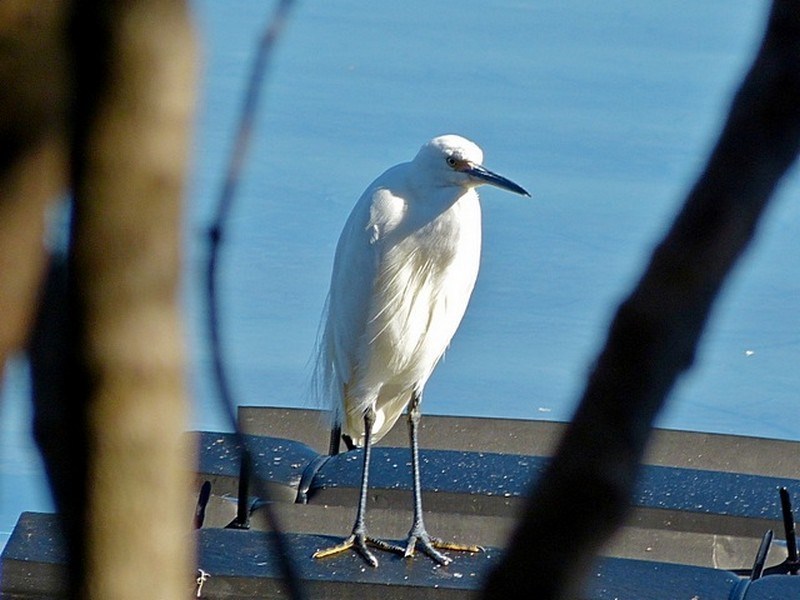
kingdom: Animalia
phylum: Chordata
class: Aves
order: Pelecaniformes
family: Ardeidae
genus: Egretta
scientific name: Egretta garzetta
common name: Little egret
